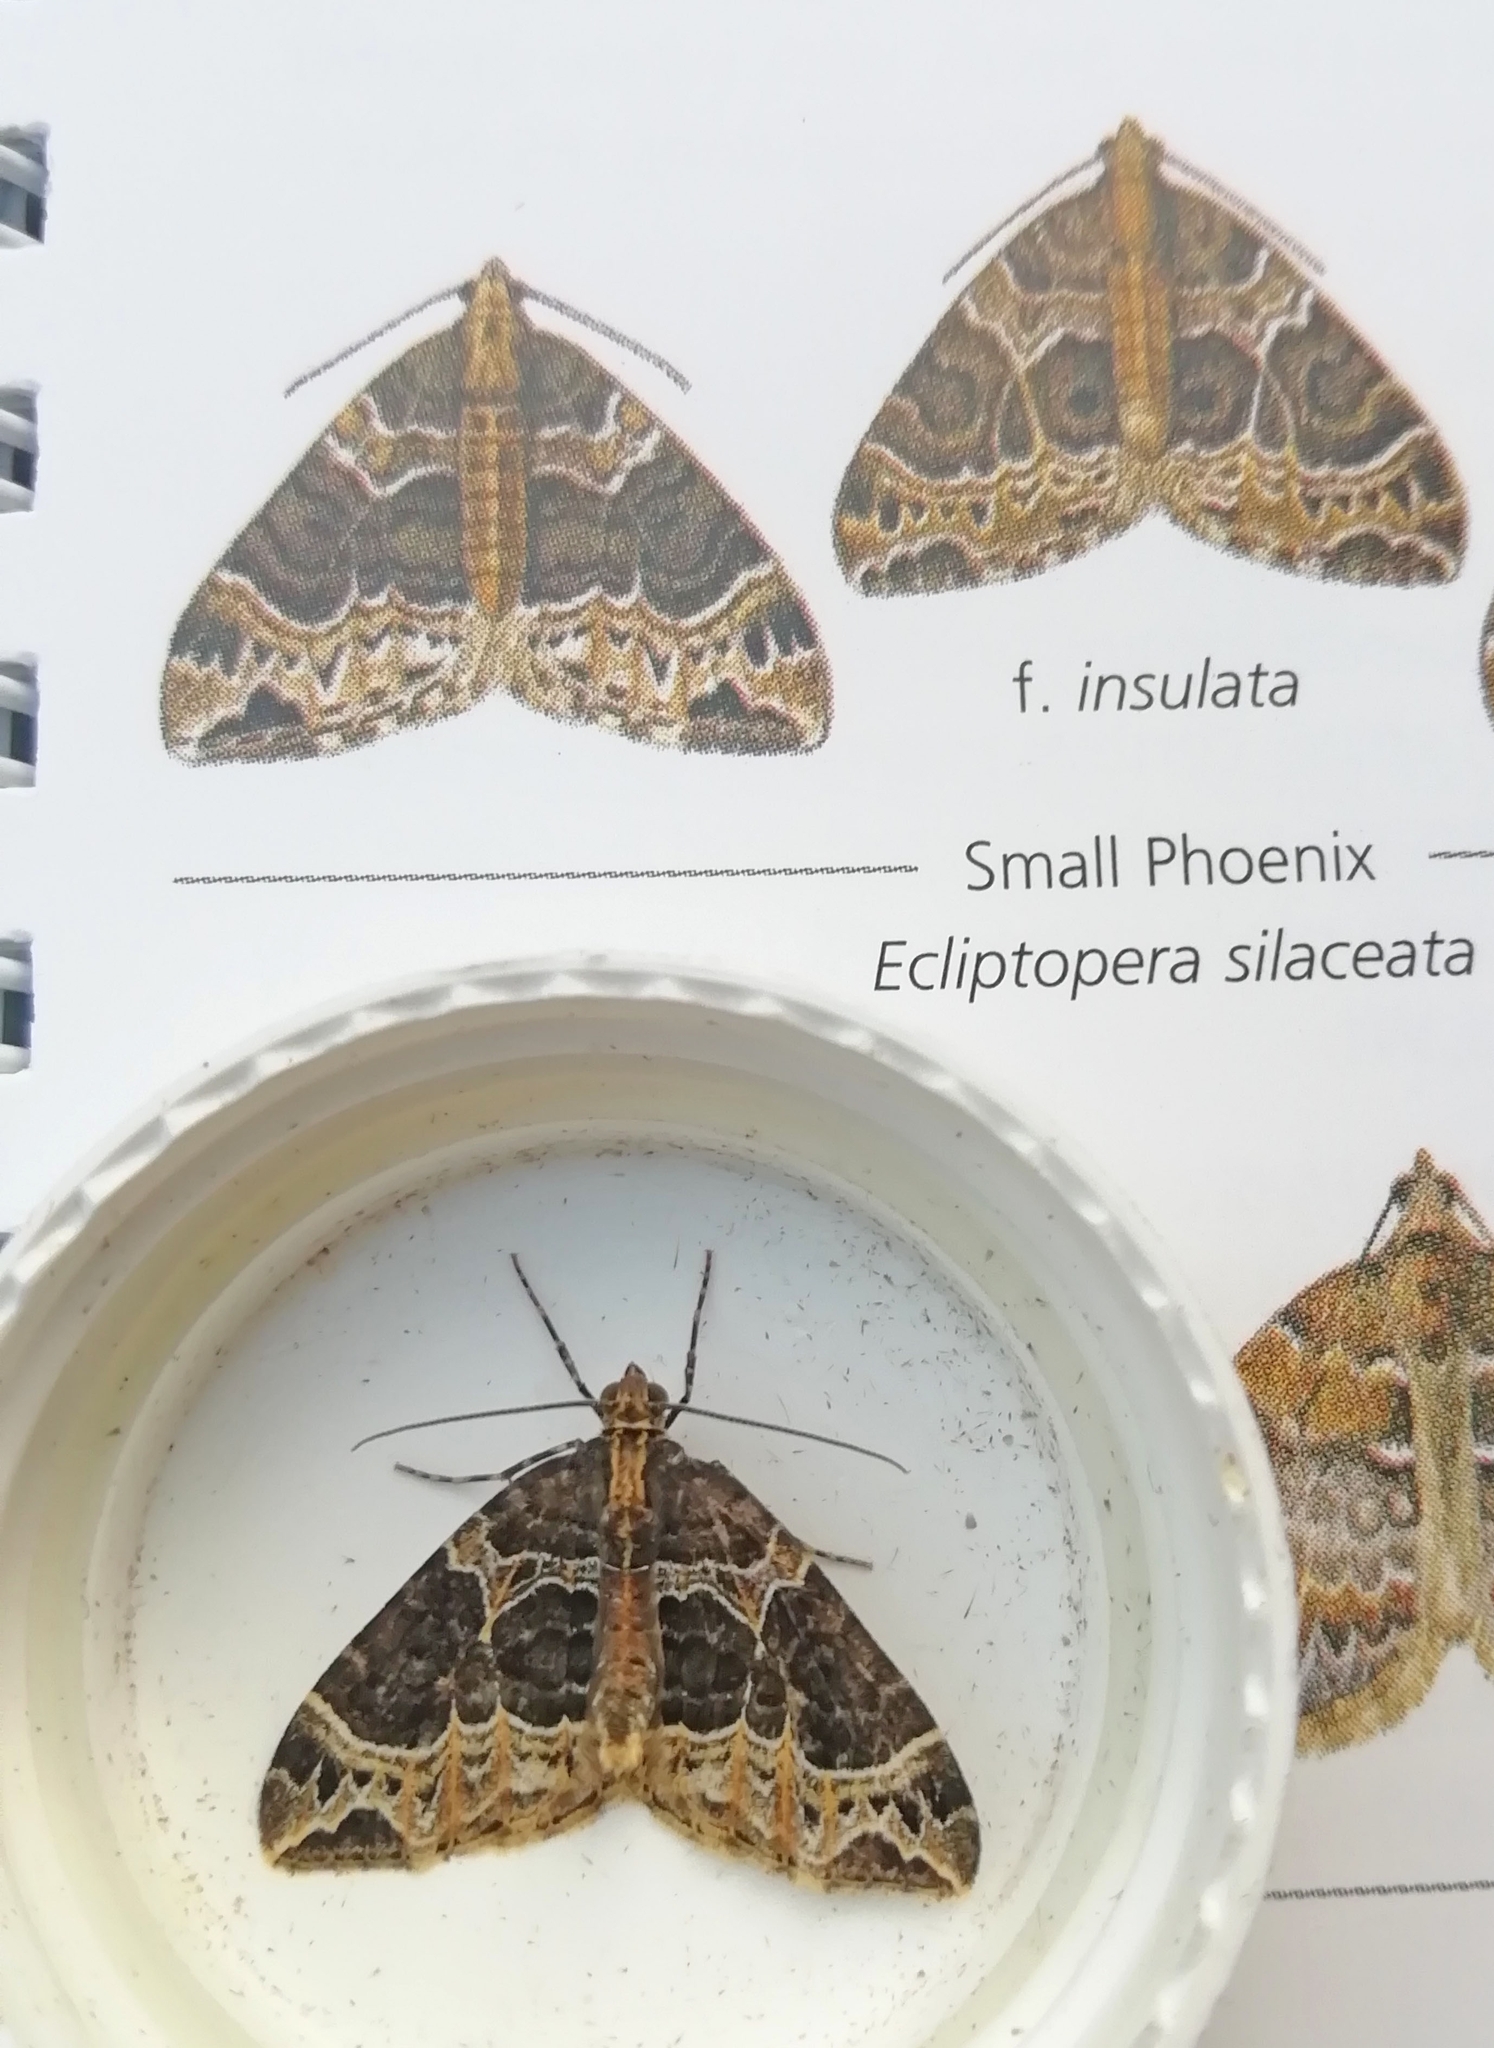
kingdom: Animalia
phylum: Arthropoda
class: Insecta
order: Lepidoptera
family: Geometridae
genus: Ecliptopera
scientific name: Ecliptopera silaceata
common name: Small phoenix
